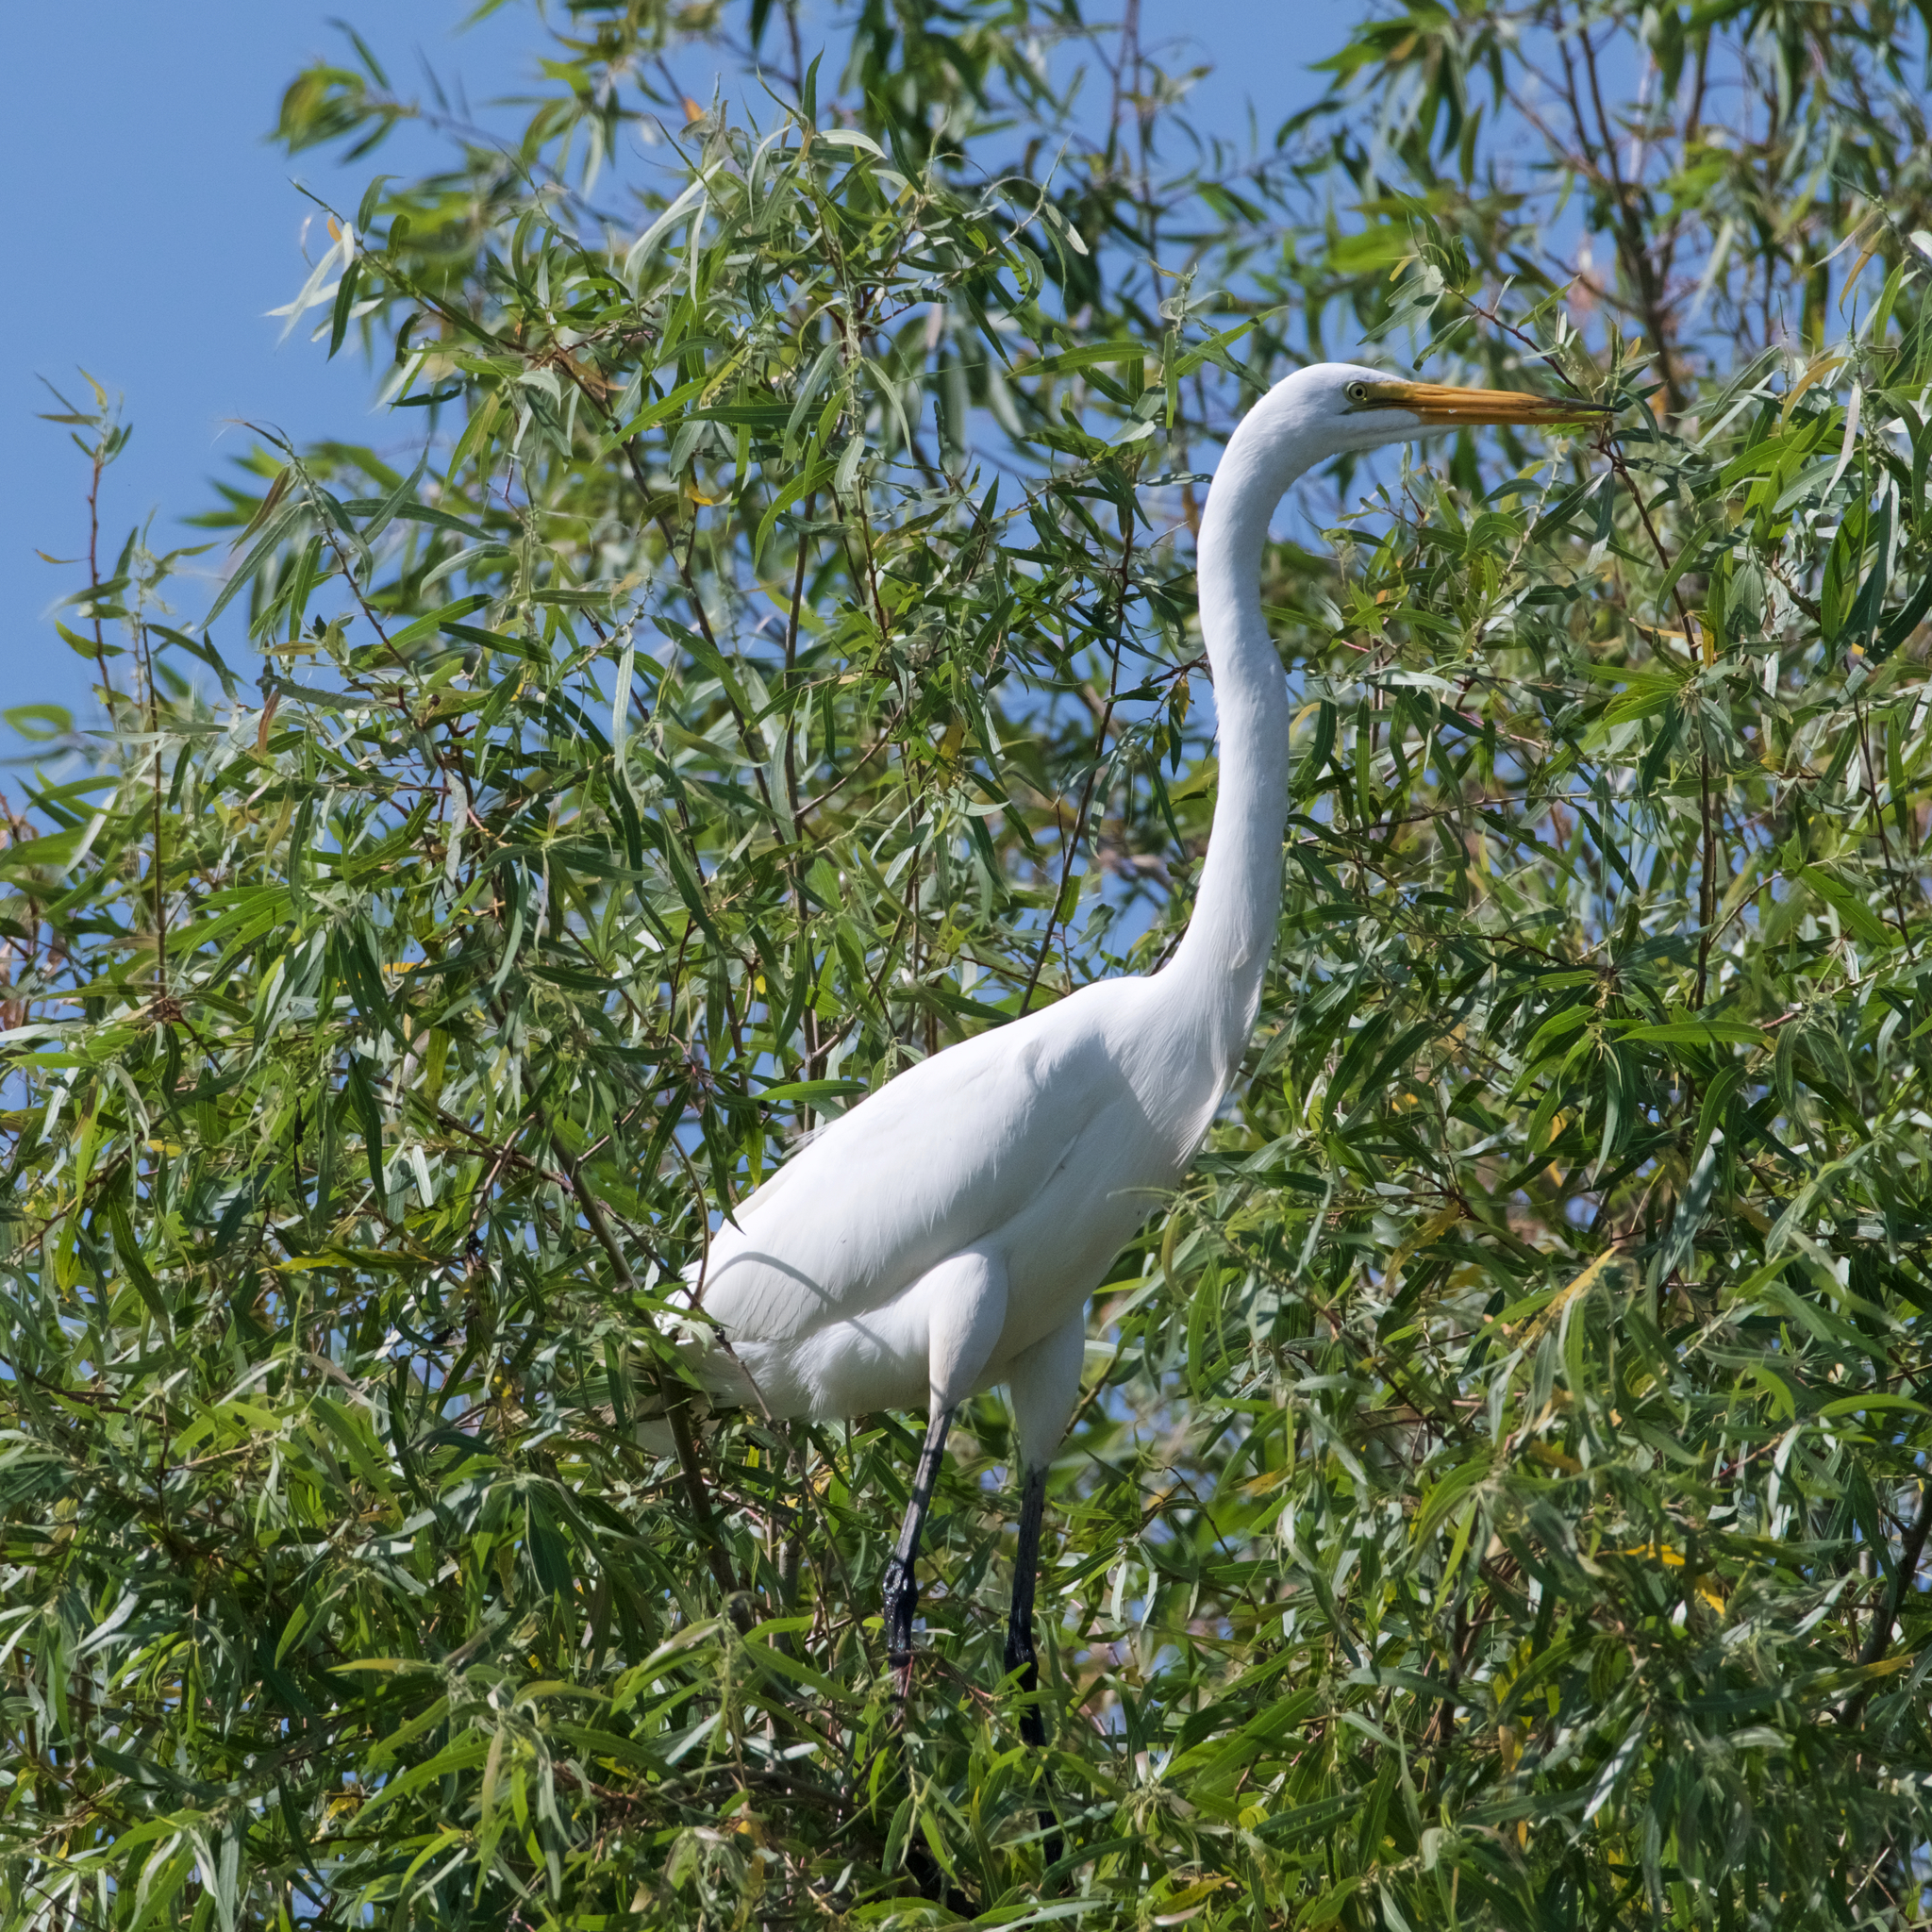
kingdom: Animalia
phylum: Chordata
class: Aves
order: Pelecaniformes
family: Ardeidae
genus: Ardea
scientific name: Ardea alba
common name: Great egret
